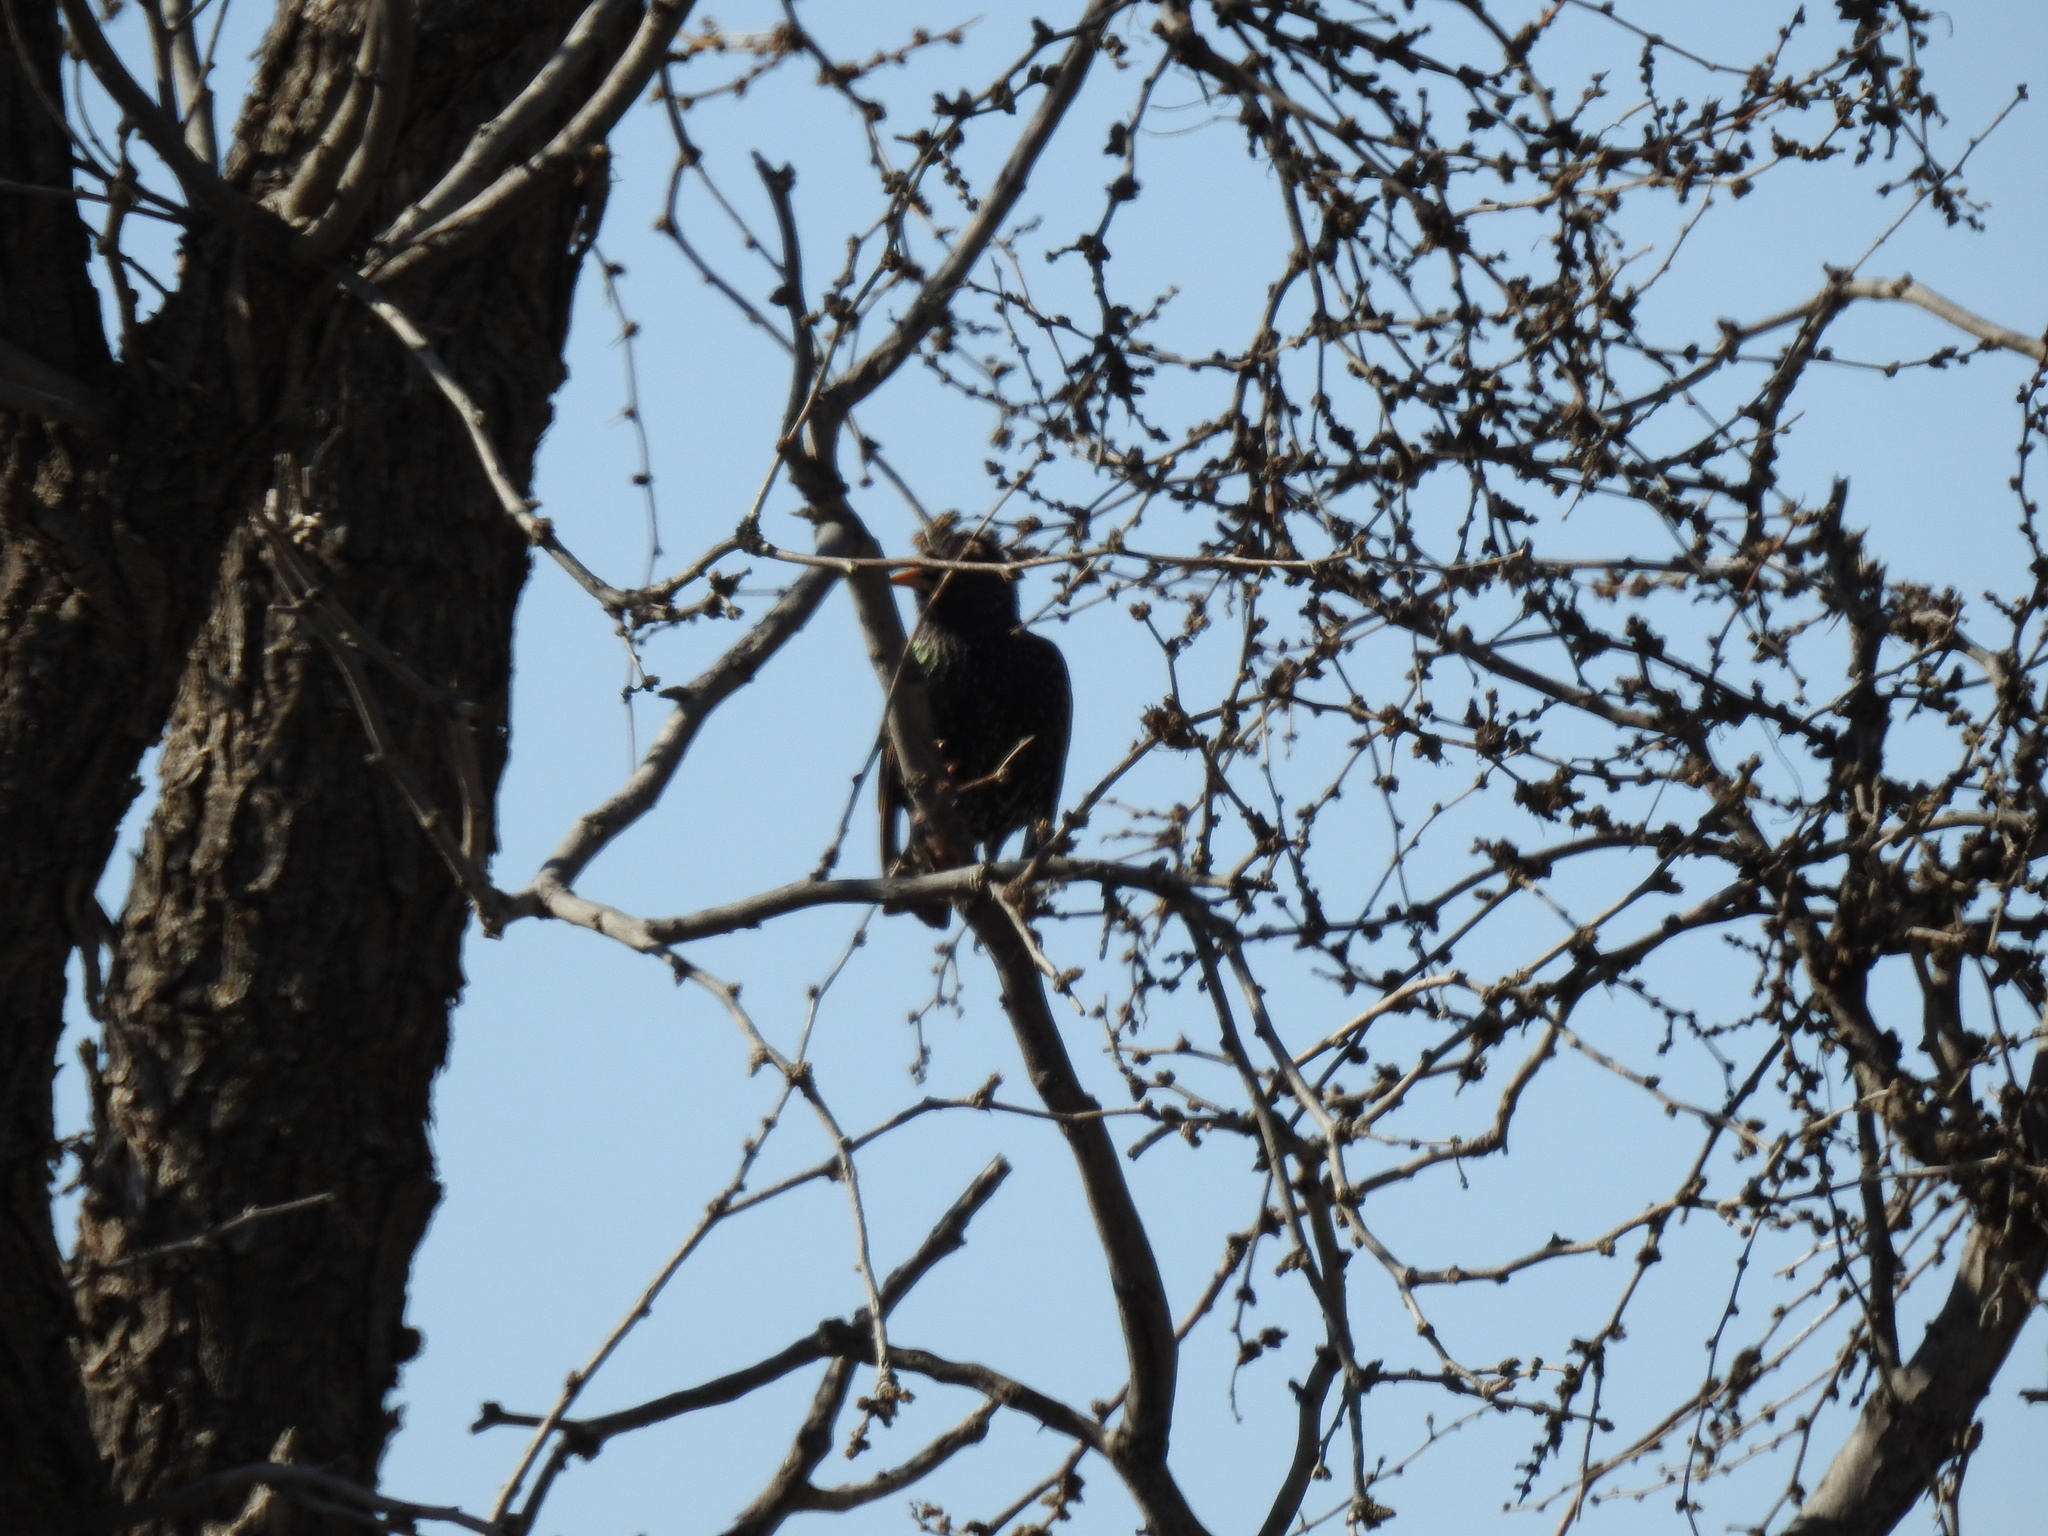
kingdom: Animalia
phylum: Chordata
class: Aves
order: Passeriformes
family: Sturnidae
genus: Sturnus
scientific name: Sturnus vulgaris
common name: Common starling
